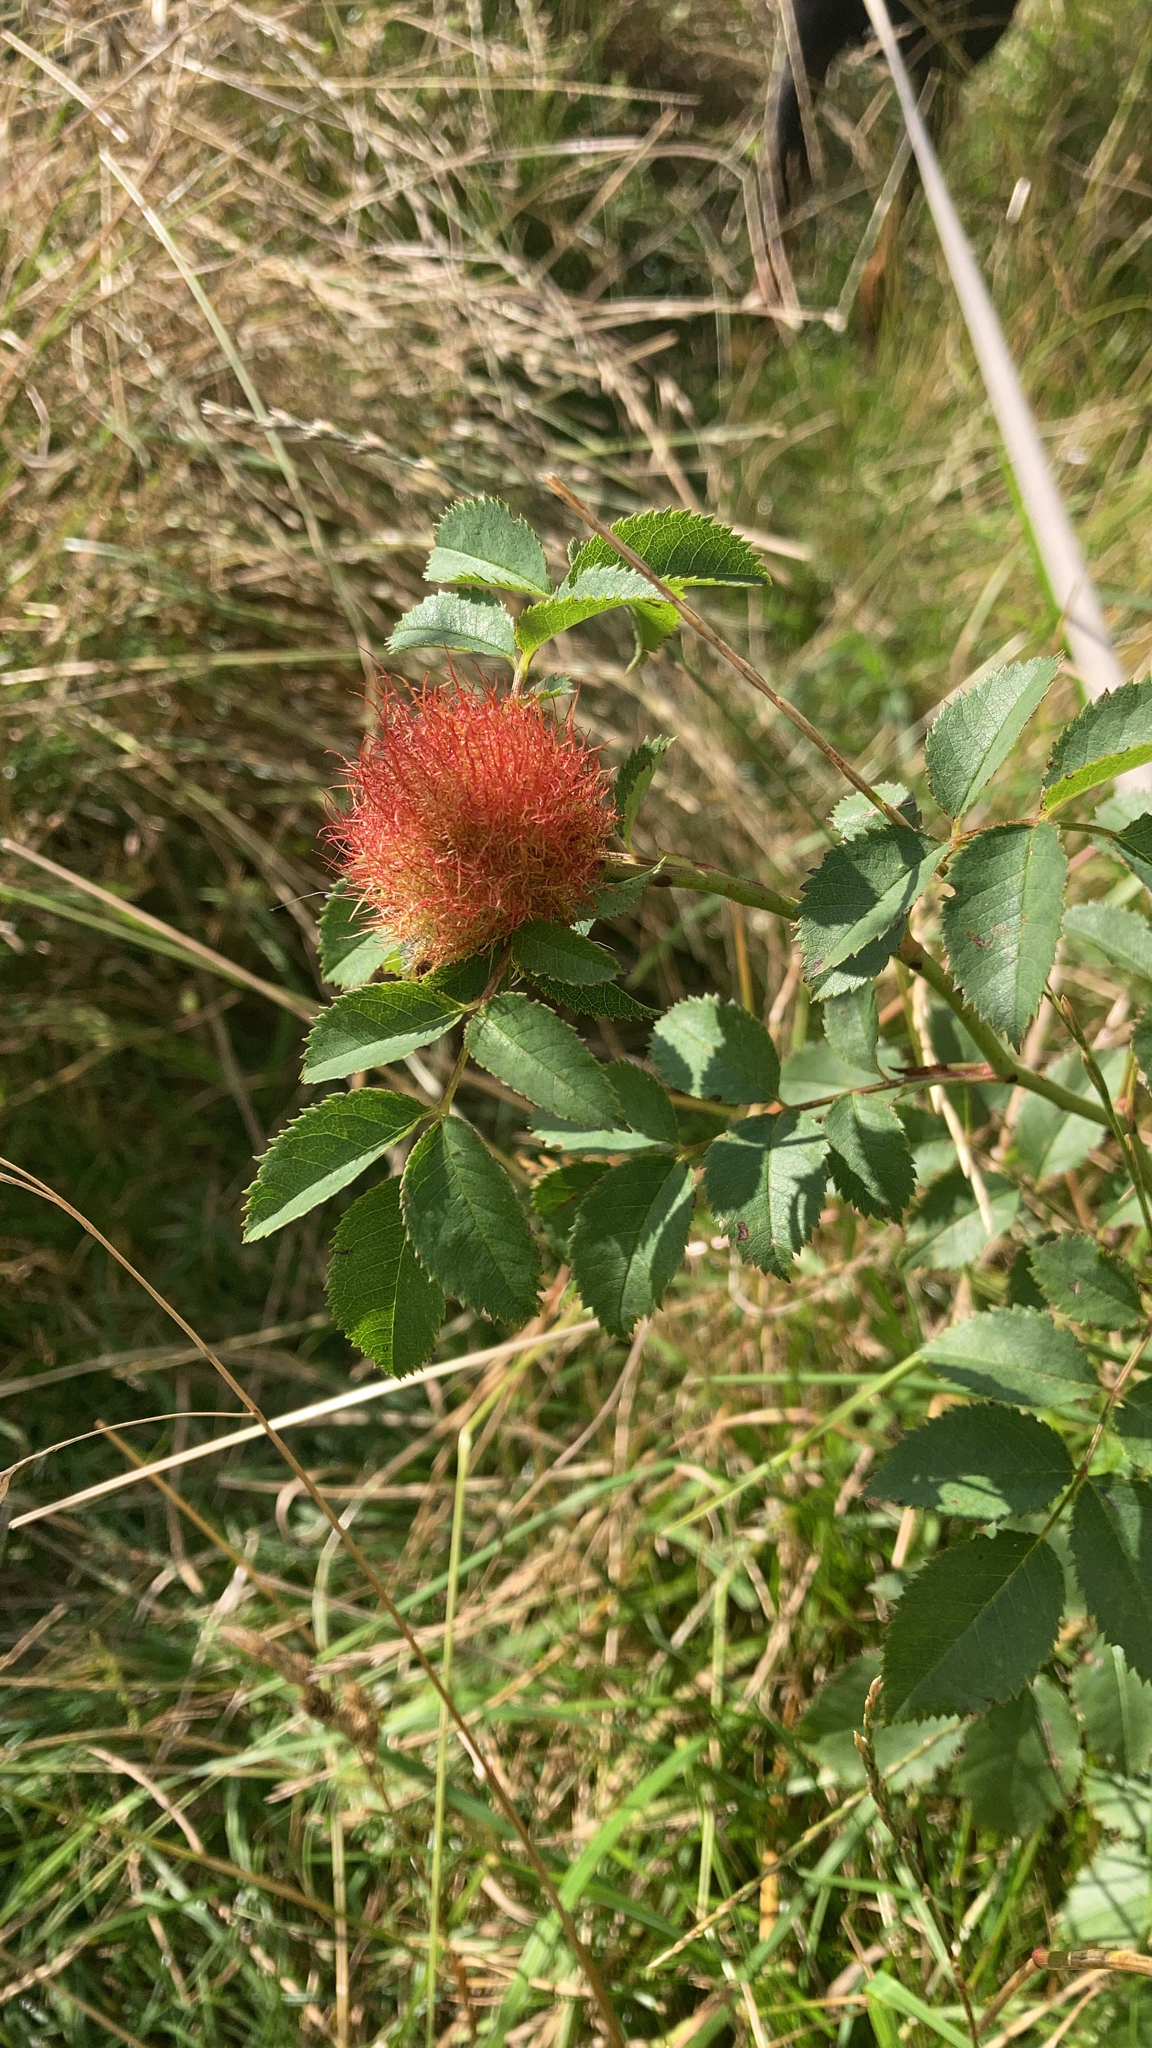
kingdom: Animalia
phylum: Arthropoda
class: Insecta
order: Hymenoptera
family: Cynipidae
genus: Diplolepis
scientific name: Diplolepis rosae
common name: Bedeguar gall
